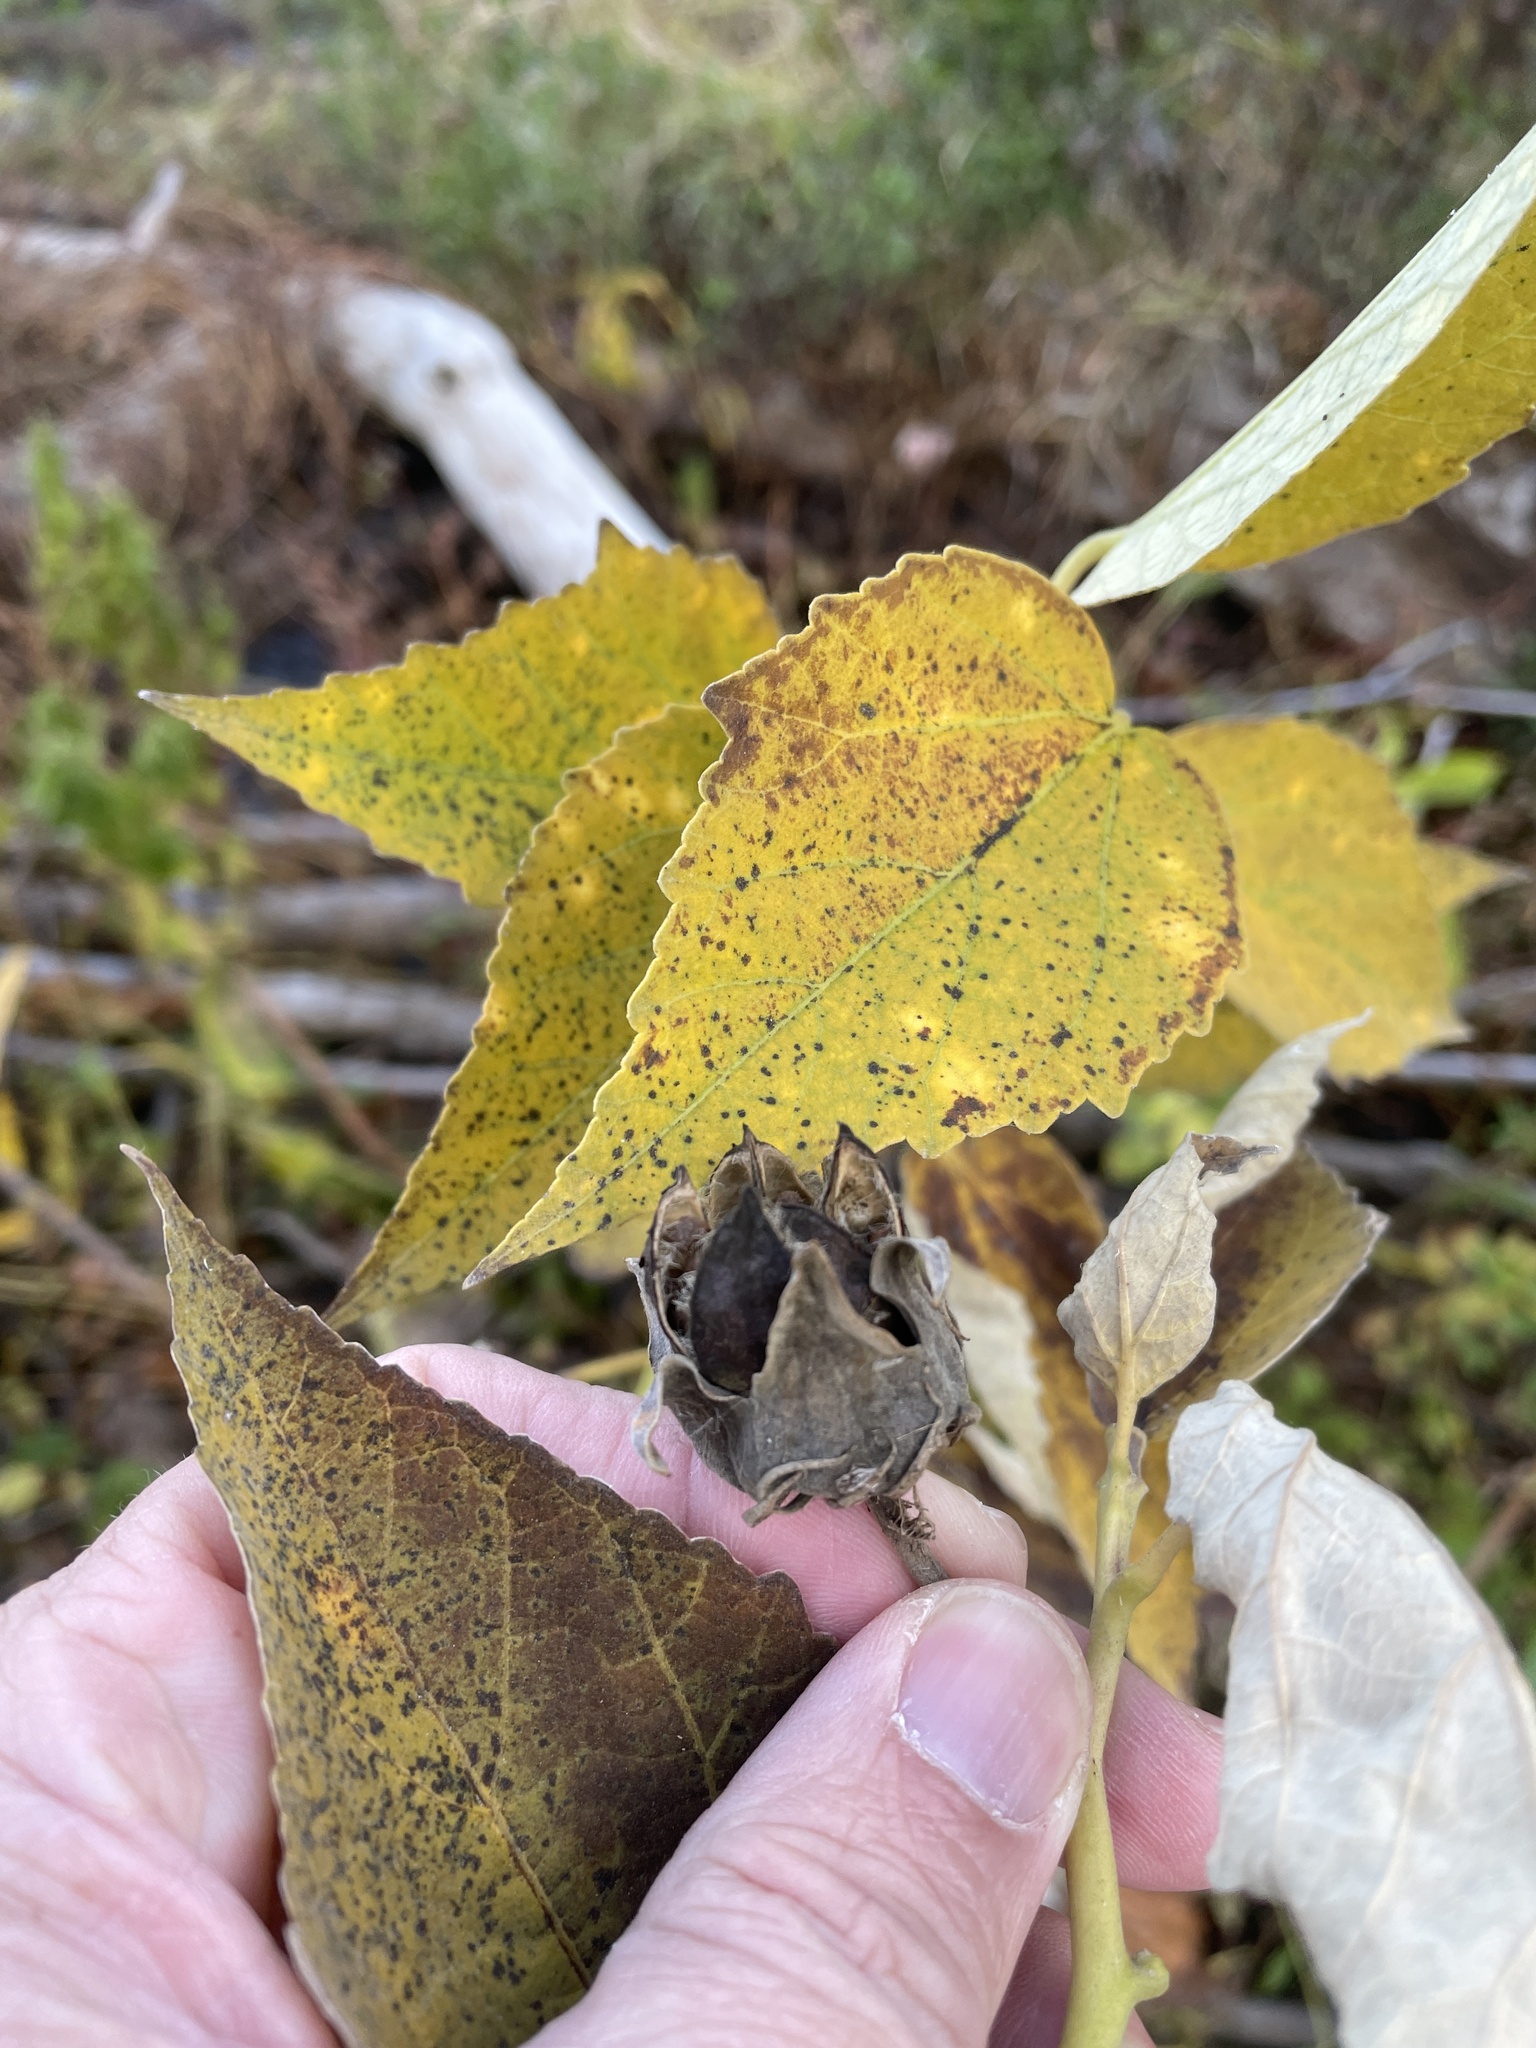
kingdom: Plantae
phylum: Tracheophyta
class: Magnoliopsida
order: Malvales
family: Malvaceae
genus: Hibiscus
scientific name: Hibiscus moscheutos
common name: Common rose-mallow
